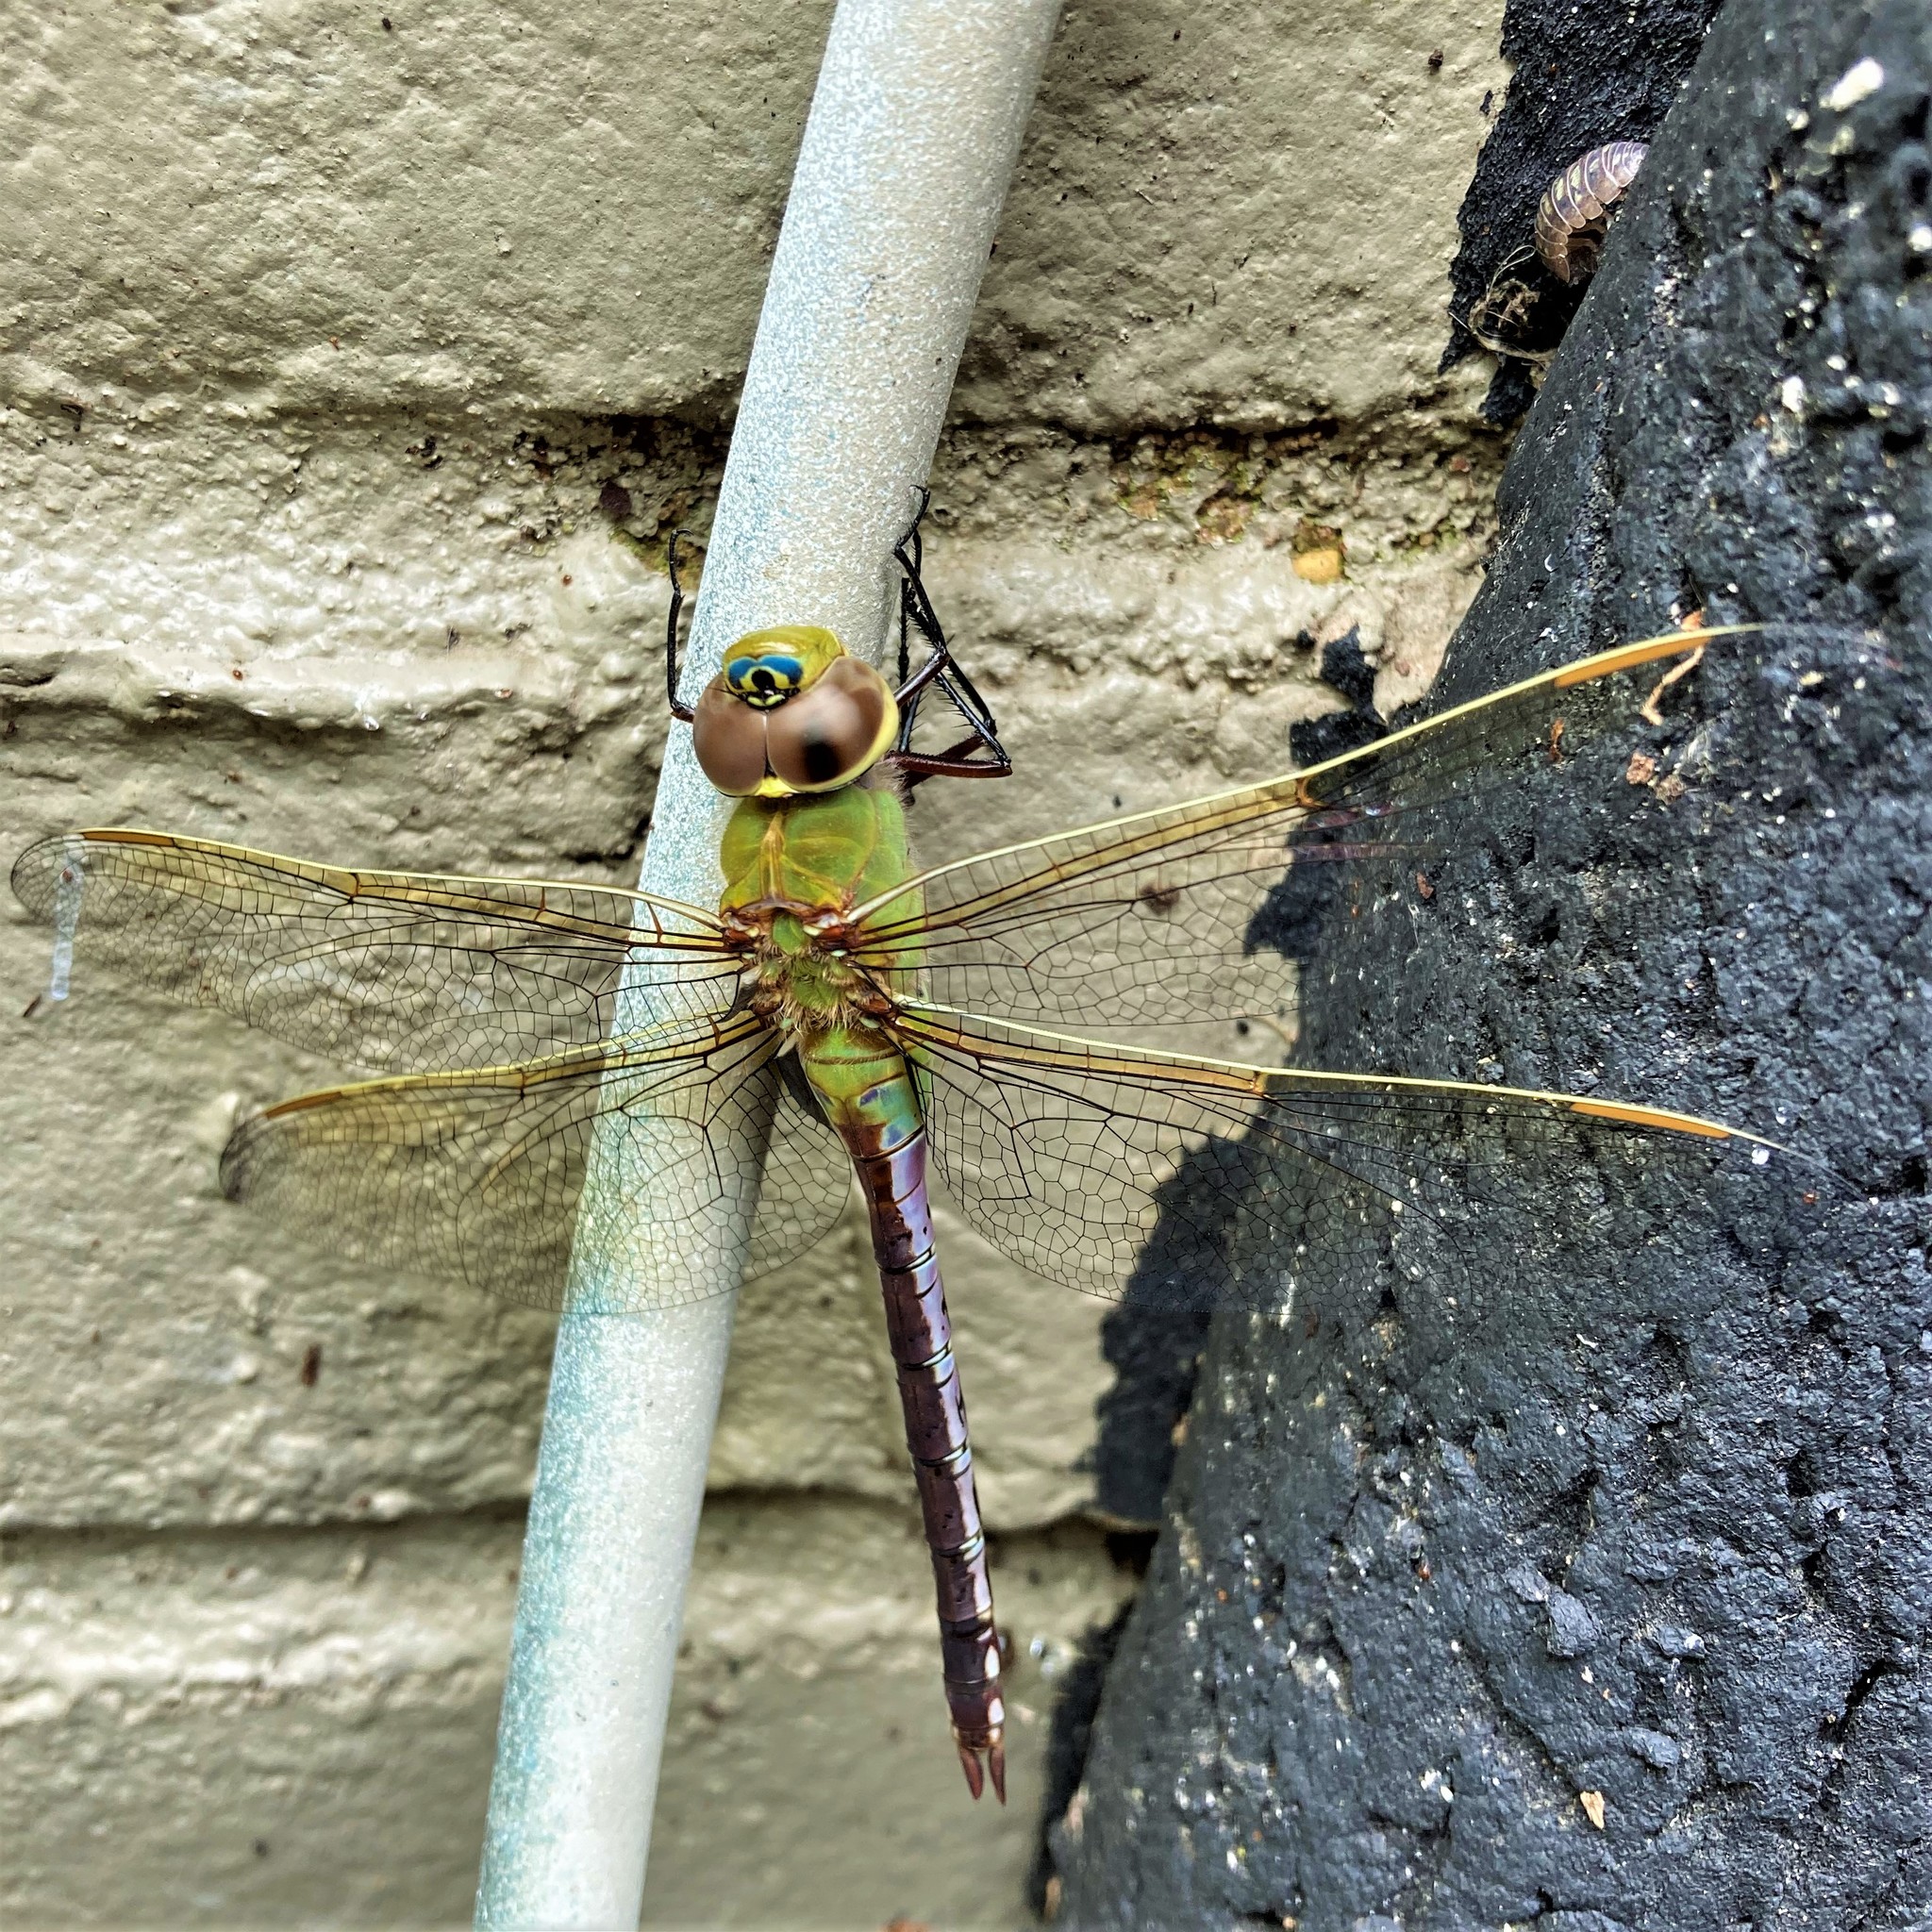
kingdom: Animalia
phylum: Arthropoda
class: Insecta
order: Odonata
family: Aeshnidae
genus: Anax
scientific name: Anax junius
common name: Common green darner
